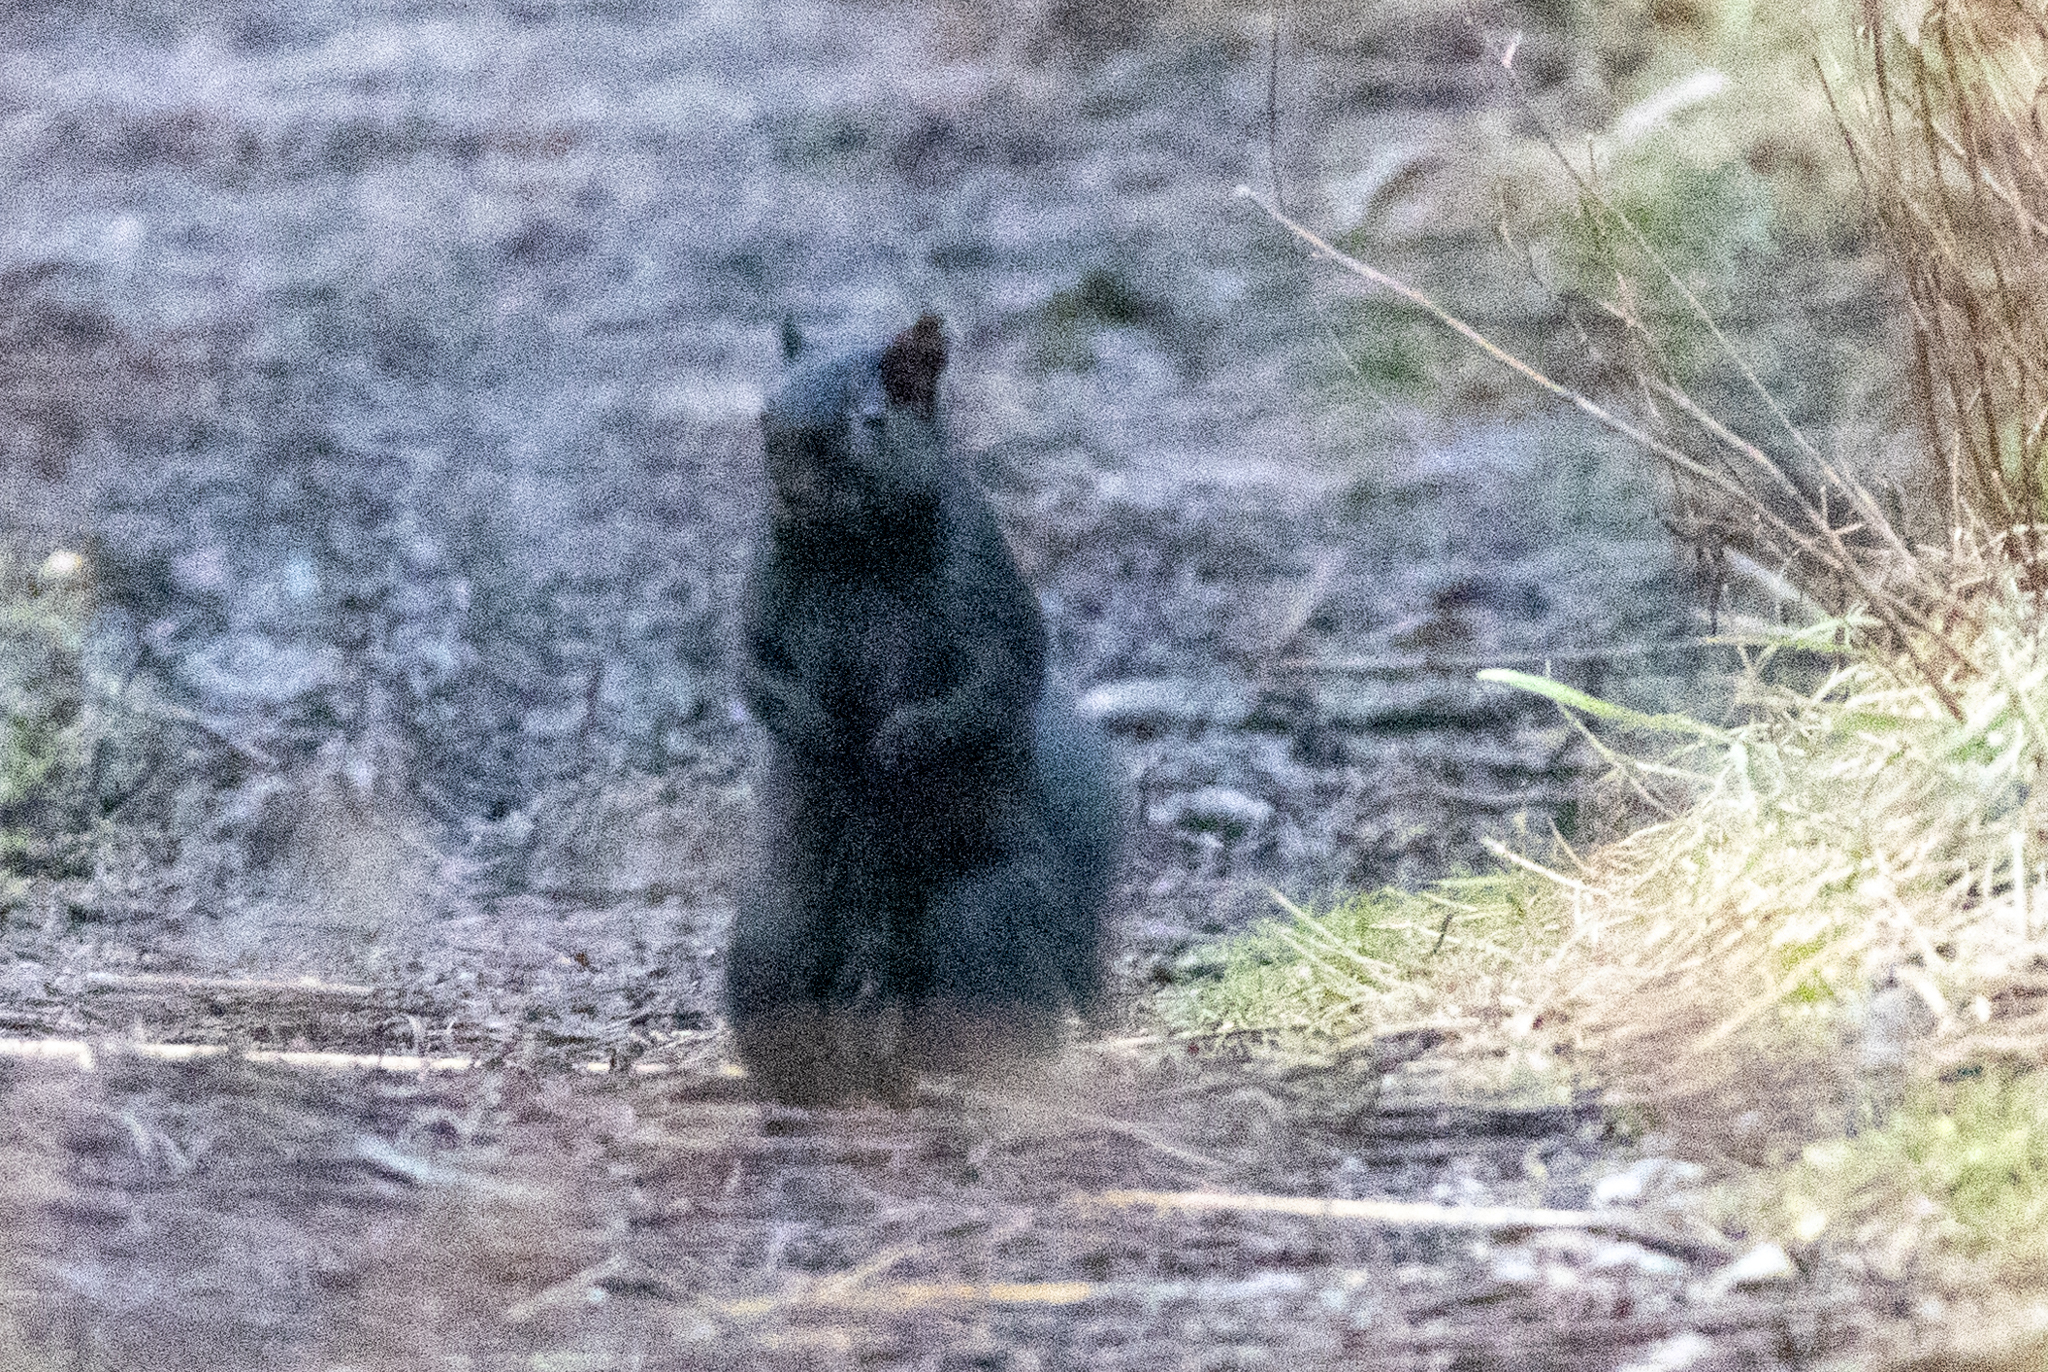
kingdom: Animalia
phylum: Chordata
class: Mammalia
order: Rodentia
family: Sciuridae
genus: Sciurus
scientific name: Sciurus carolinensis
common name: Eastern gray squirrel
